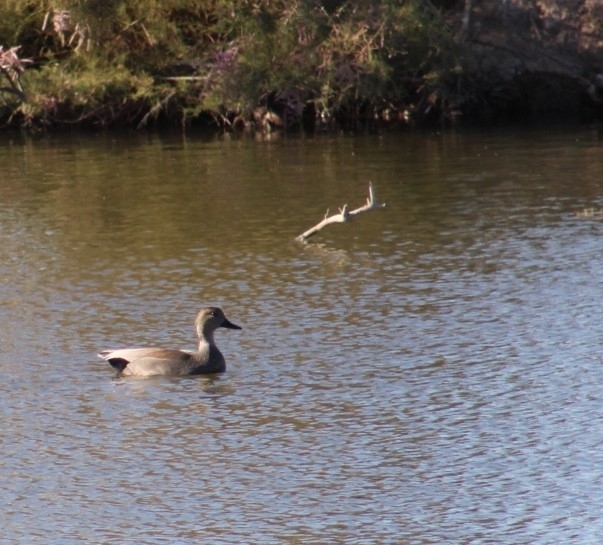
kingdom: Animalia
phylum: Chordata
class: Aves
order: Anseriformes
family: Anatidae
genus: Mareca
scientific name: Mareca strepera
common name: Gadwall
